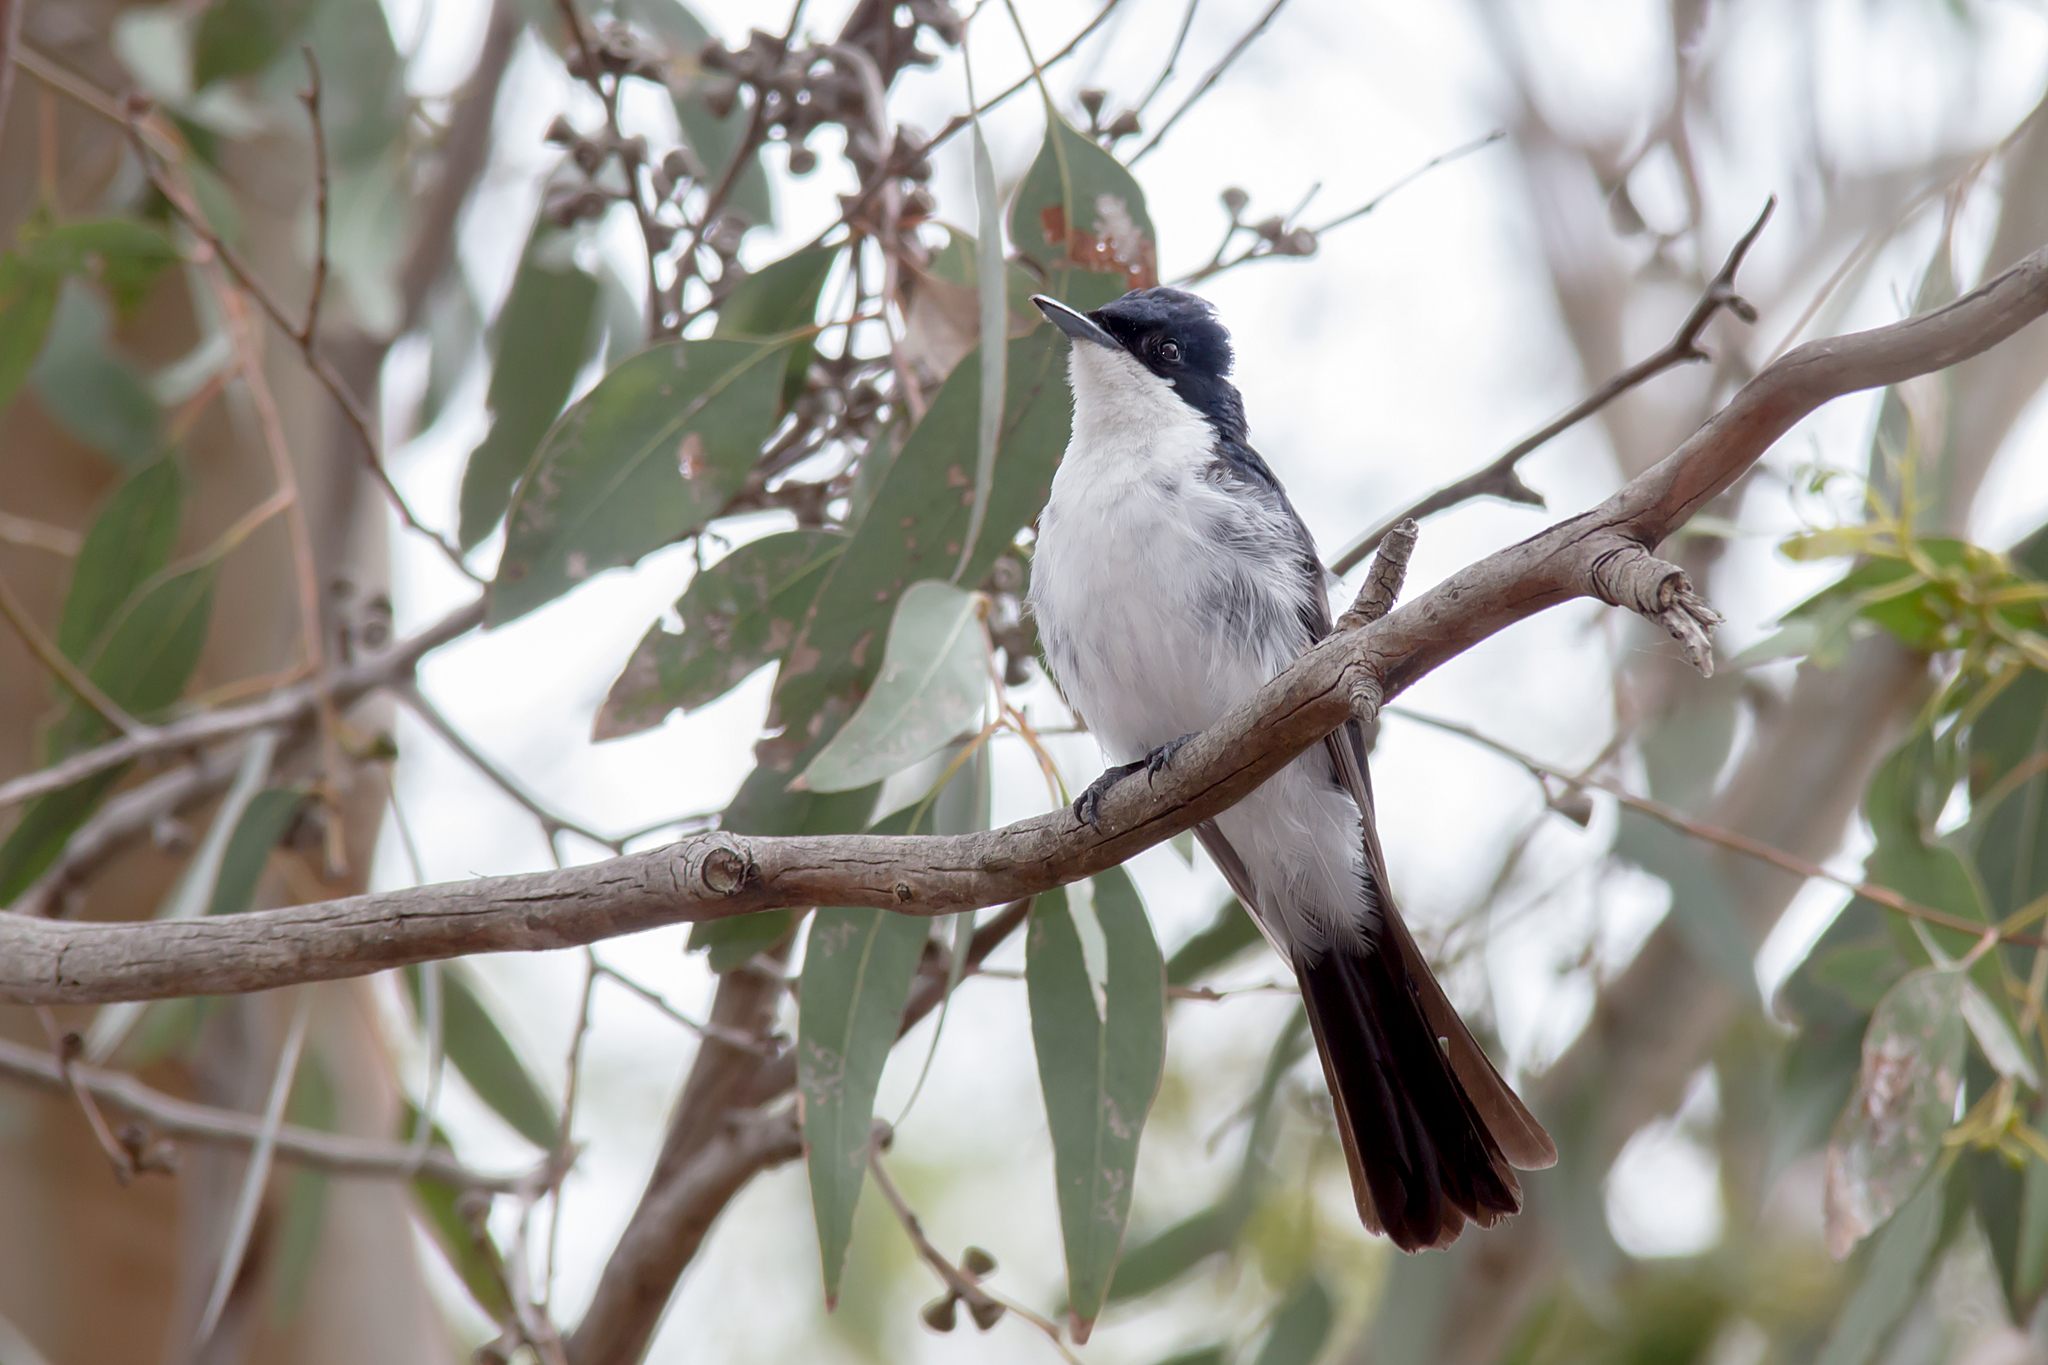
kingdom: Animalia
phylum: Chordata
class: Aves
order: Passeriformes
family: Monarchidae
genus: Myiagra
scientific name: Myiagra inquieta
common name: Restless flycatcher
